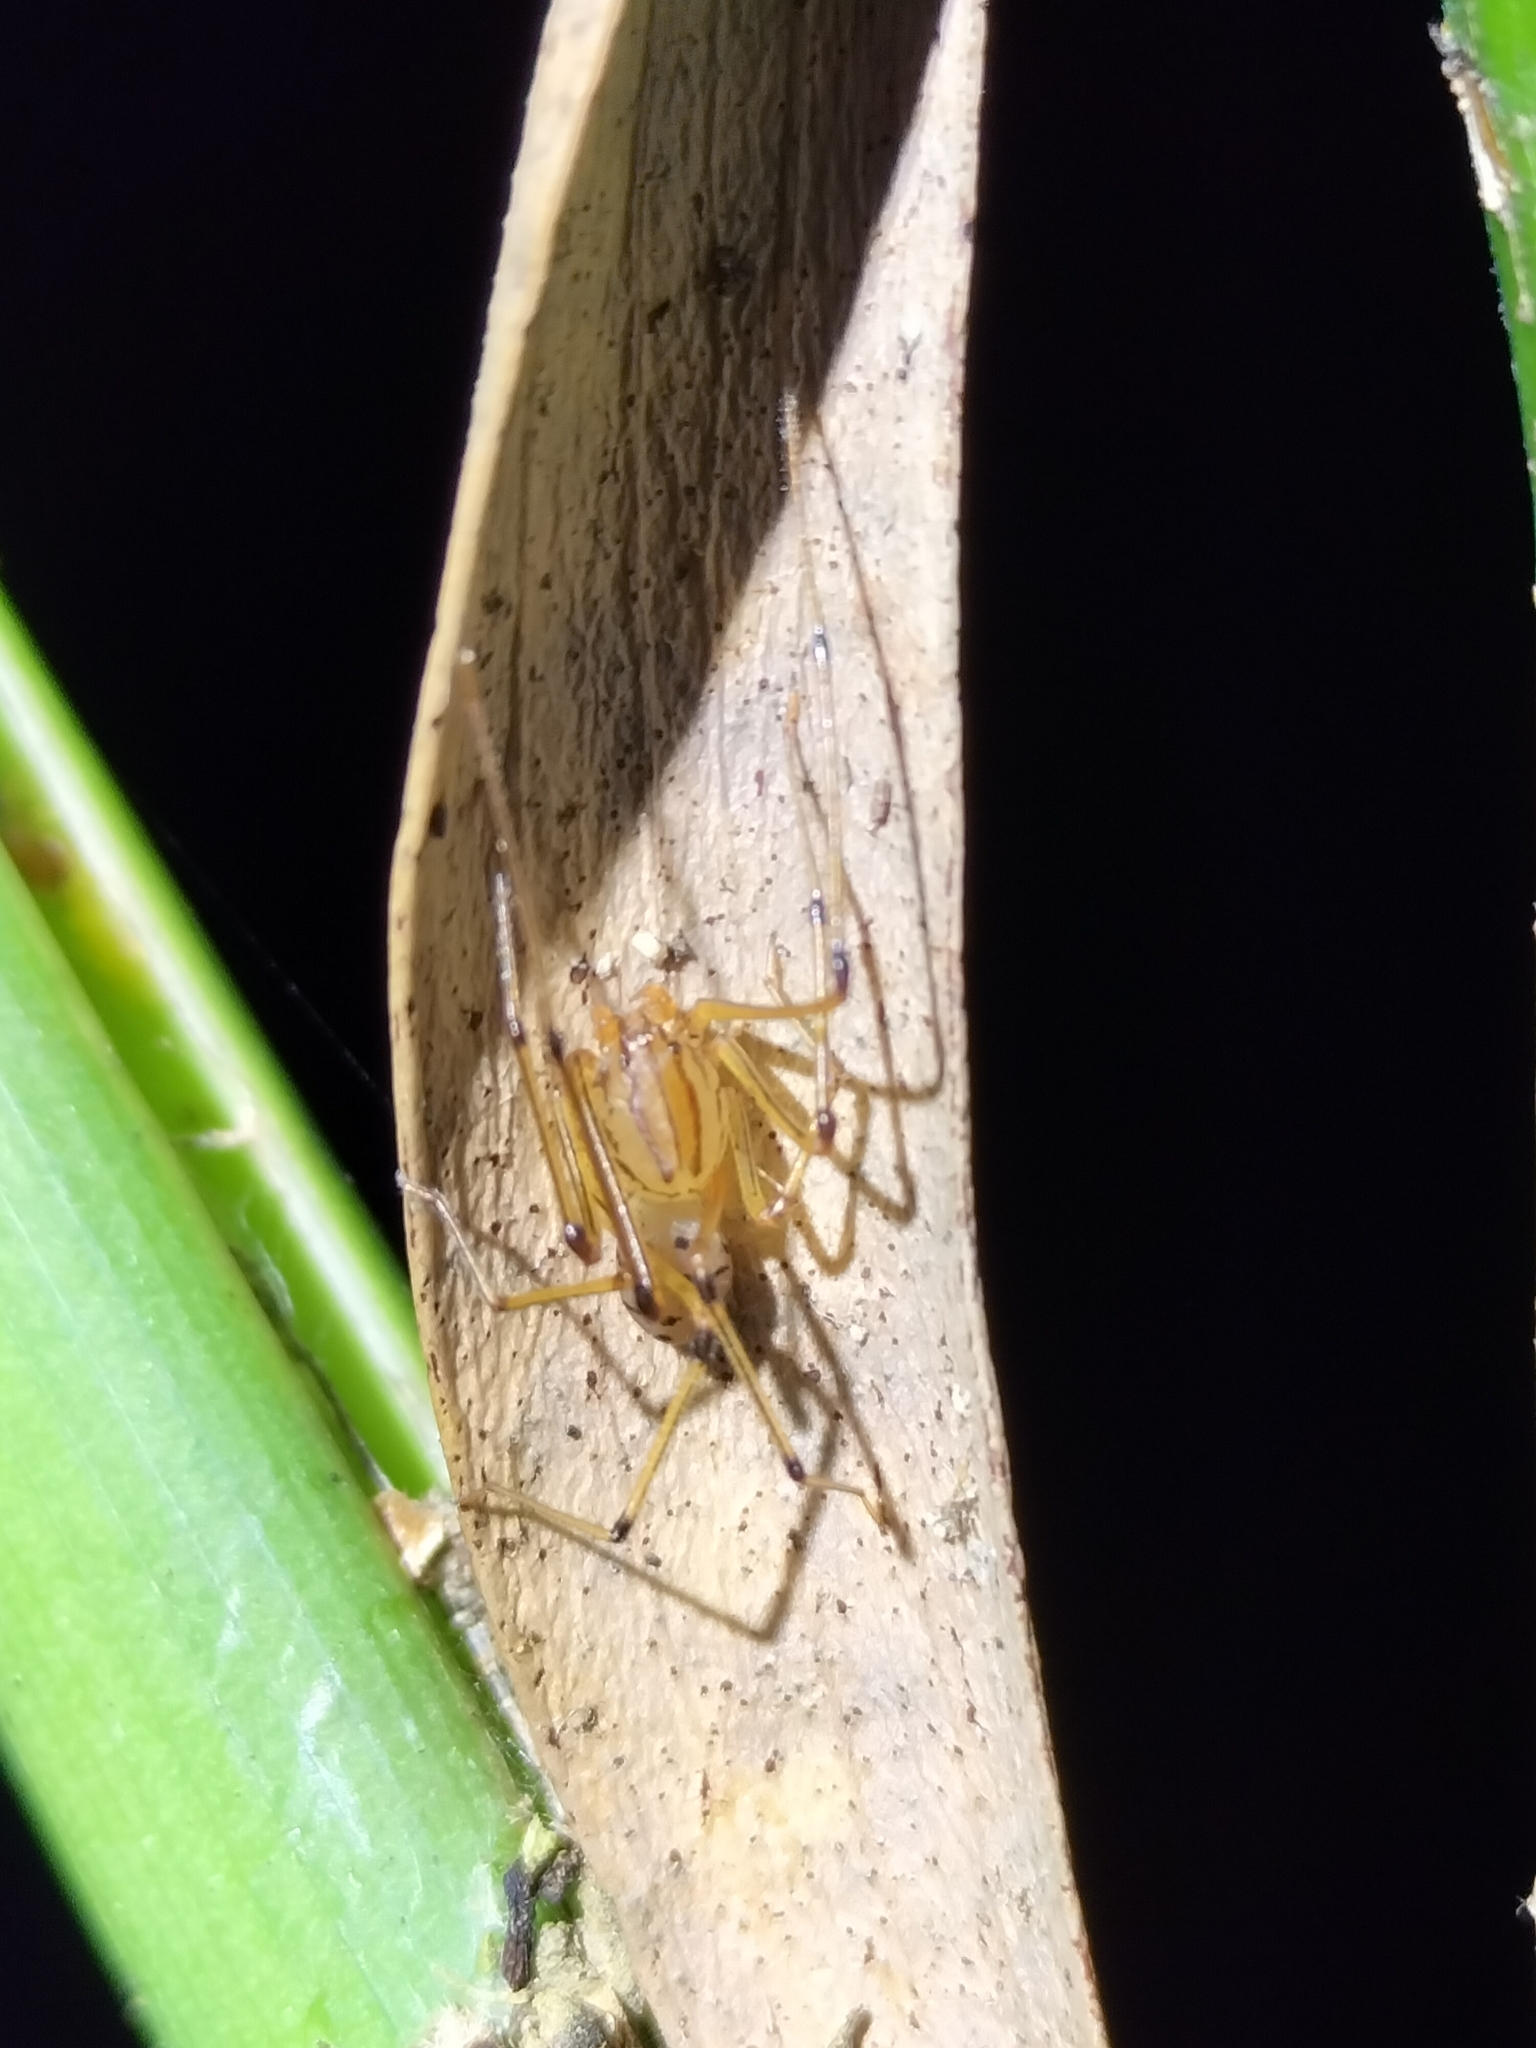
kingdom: Animalia
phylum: Arthropoda
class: Arachnida
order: Araneae
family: Scytodidae
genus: Scytodes
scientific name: Scytodes tardigrada
